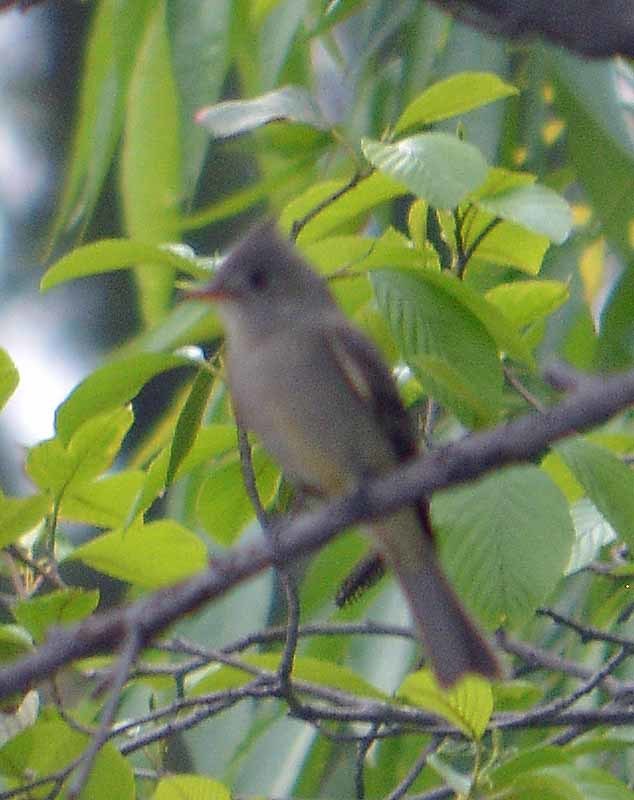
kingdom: Animalia
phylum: Chordata
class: Aves
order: Passeriformes
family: Tyrannidae
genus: Contopus
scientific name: Contopus pertinax
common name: Greater pewee
